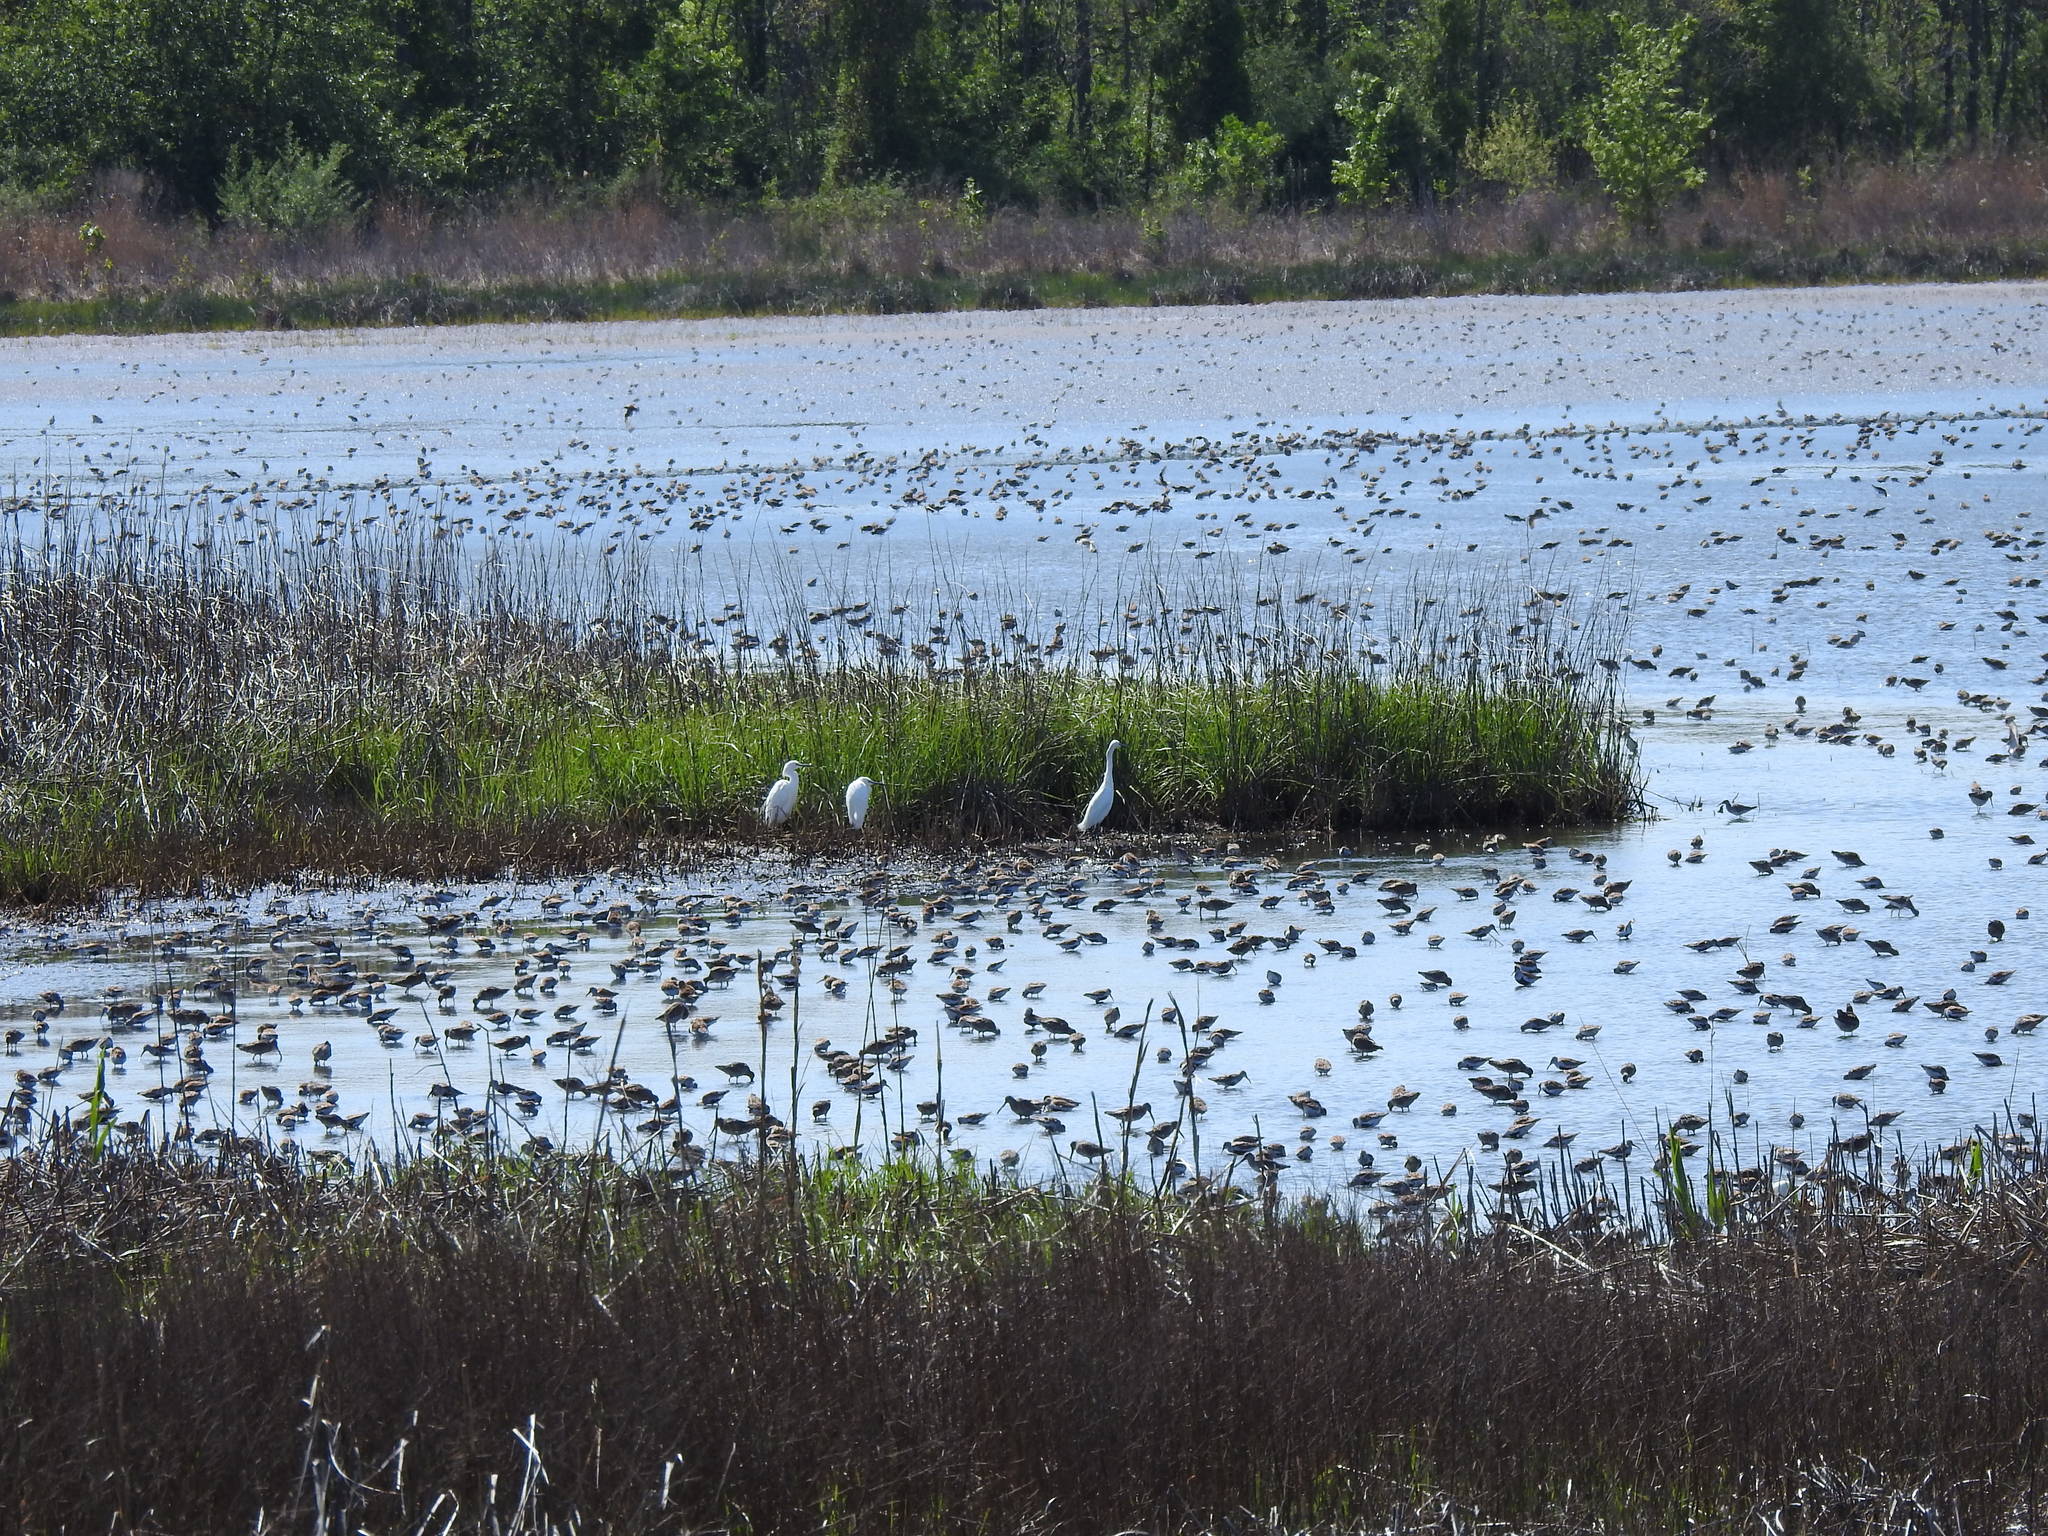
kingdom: Animalia
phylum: Chordata
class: Aves
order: Charadriiformes
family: Scolopacidae
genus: Calidris
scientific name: Calidris alpina
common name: Dunlin
